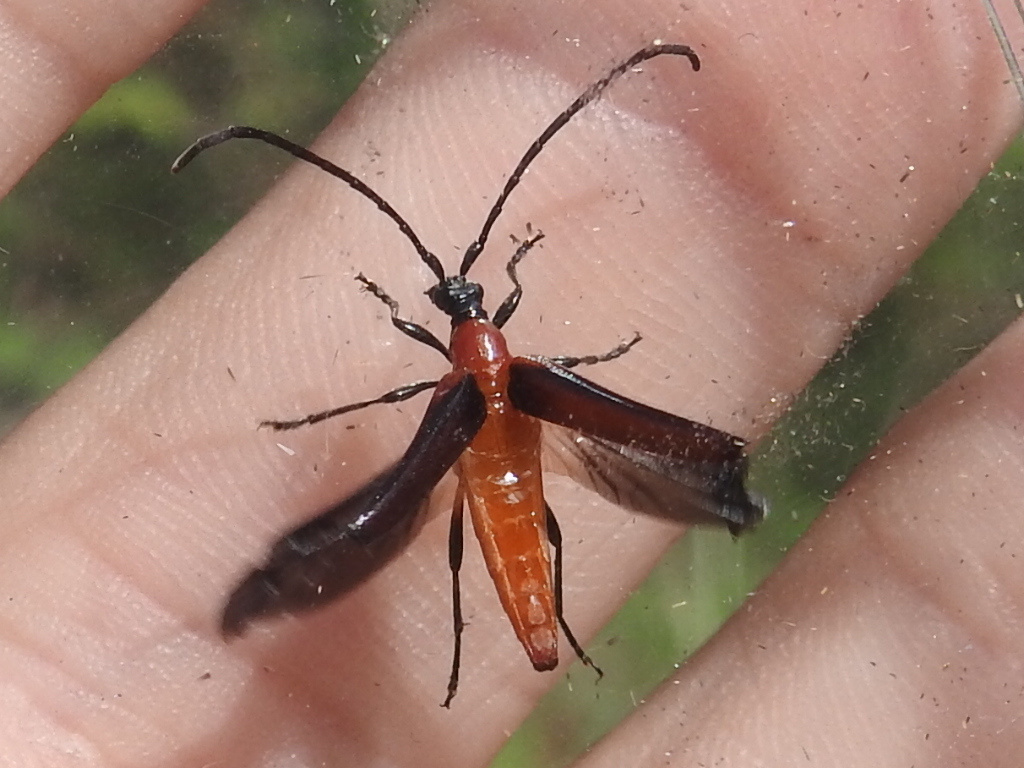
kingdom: Animalia
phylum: Arthropoda
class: Insecta
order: Coleoptera
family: Cerambycidae
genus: Cyphonotida
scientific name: Cyphonotida rostrata
